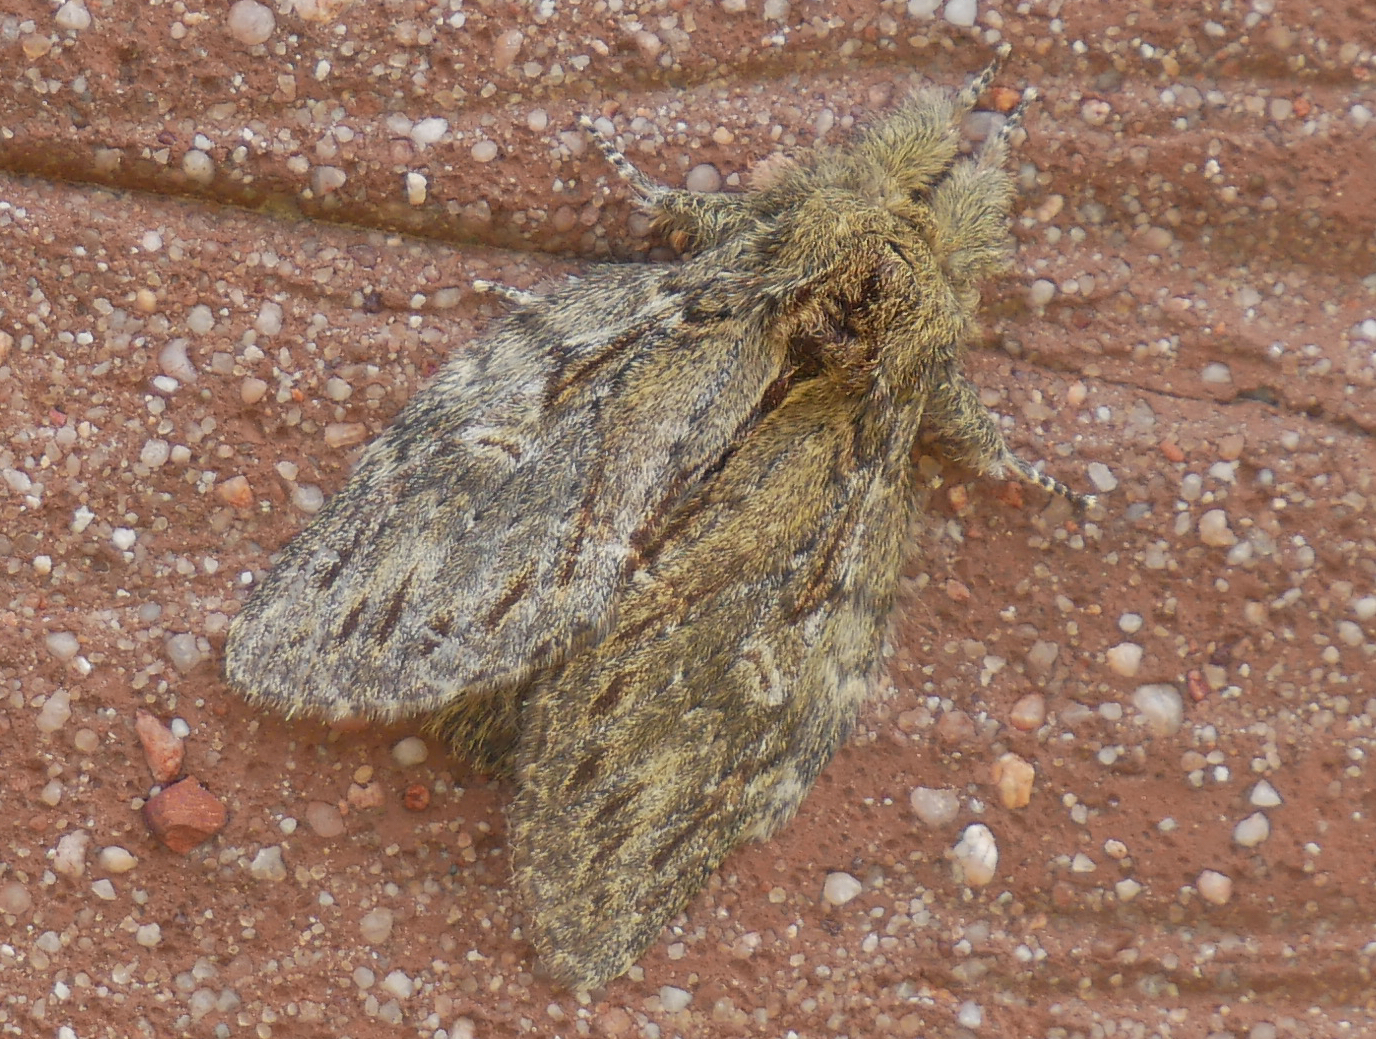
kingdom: Animalia
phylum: Arthropoda
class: Insecta
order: Lepidoptera
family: Notodontidae
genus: Peridea
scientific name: Peridea anceps
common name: Great prominent
